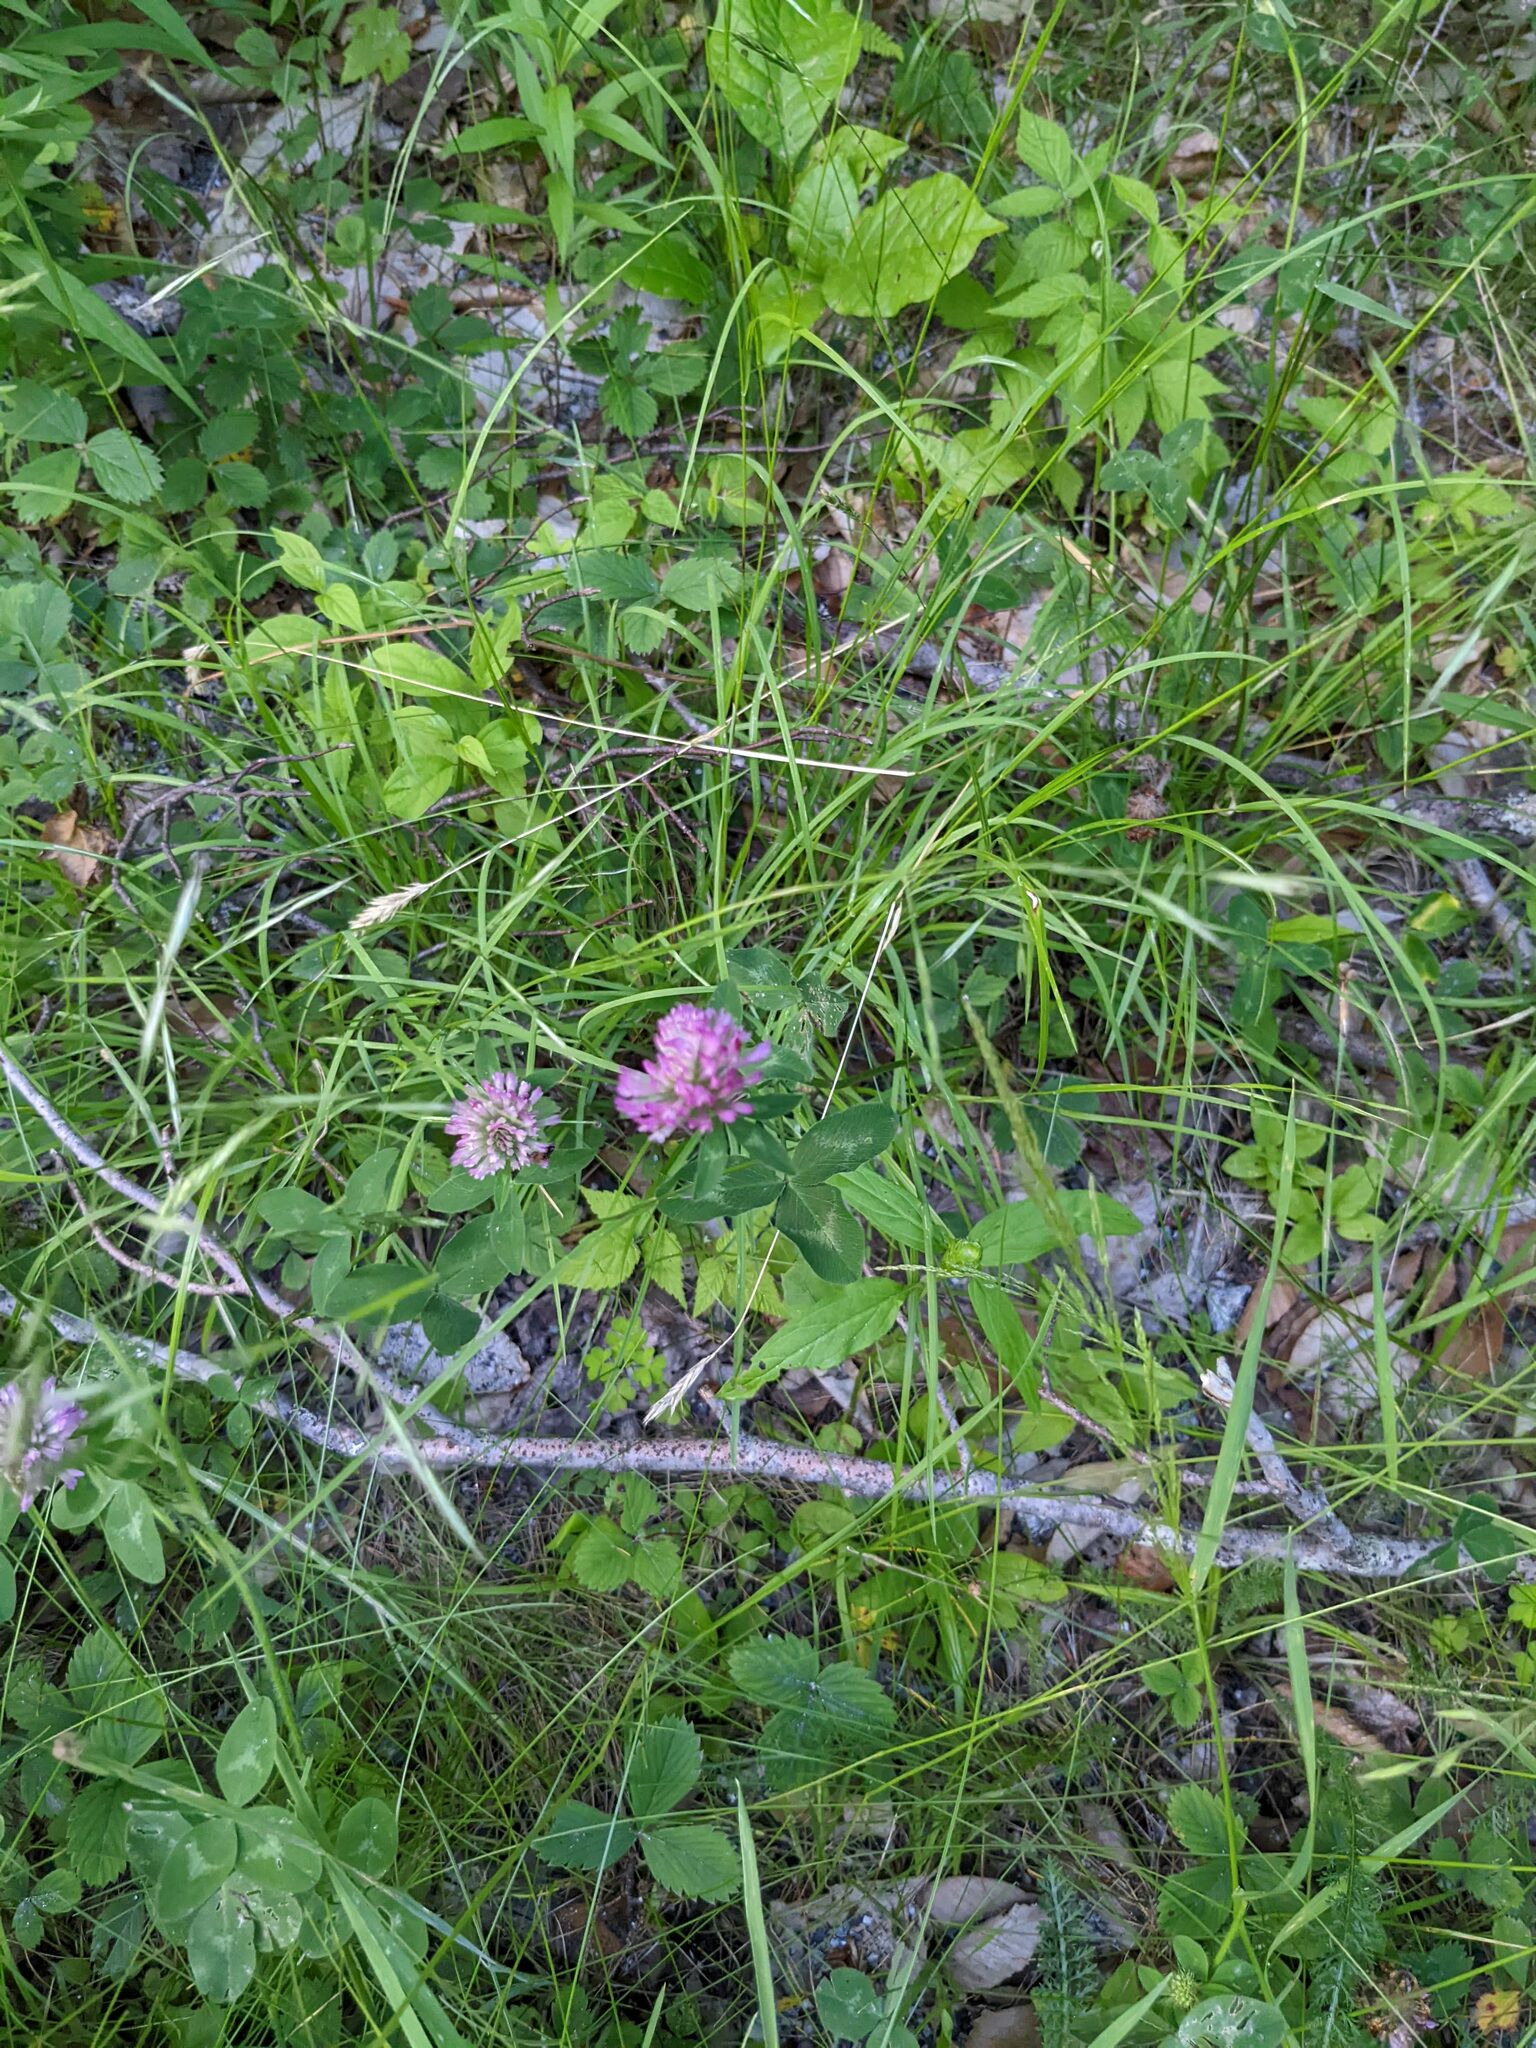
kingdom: Plantae
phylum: Tracheophyta
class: Magnoliopsida
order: Fabales
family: Fabaceae
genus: Trifolium
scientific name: Trifolium pratense
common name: Red clover
